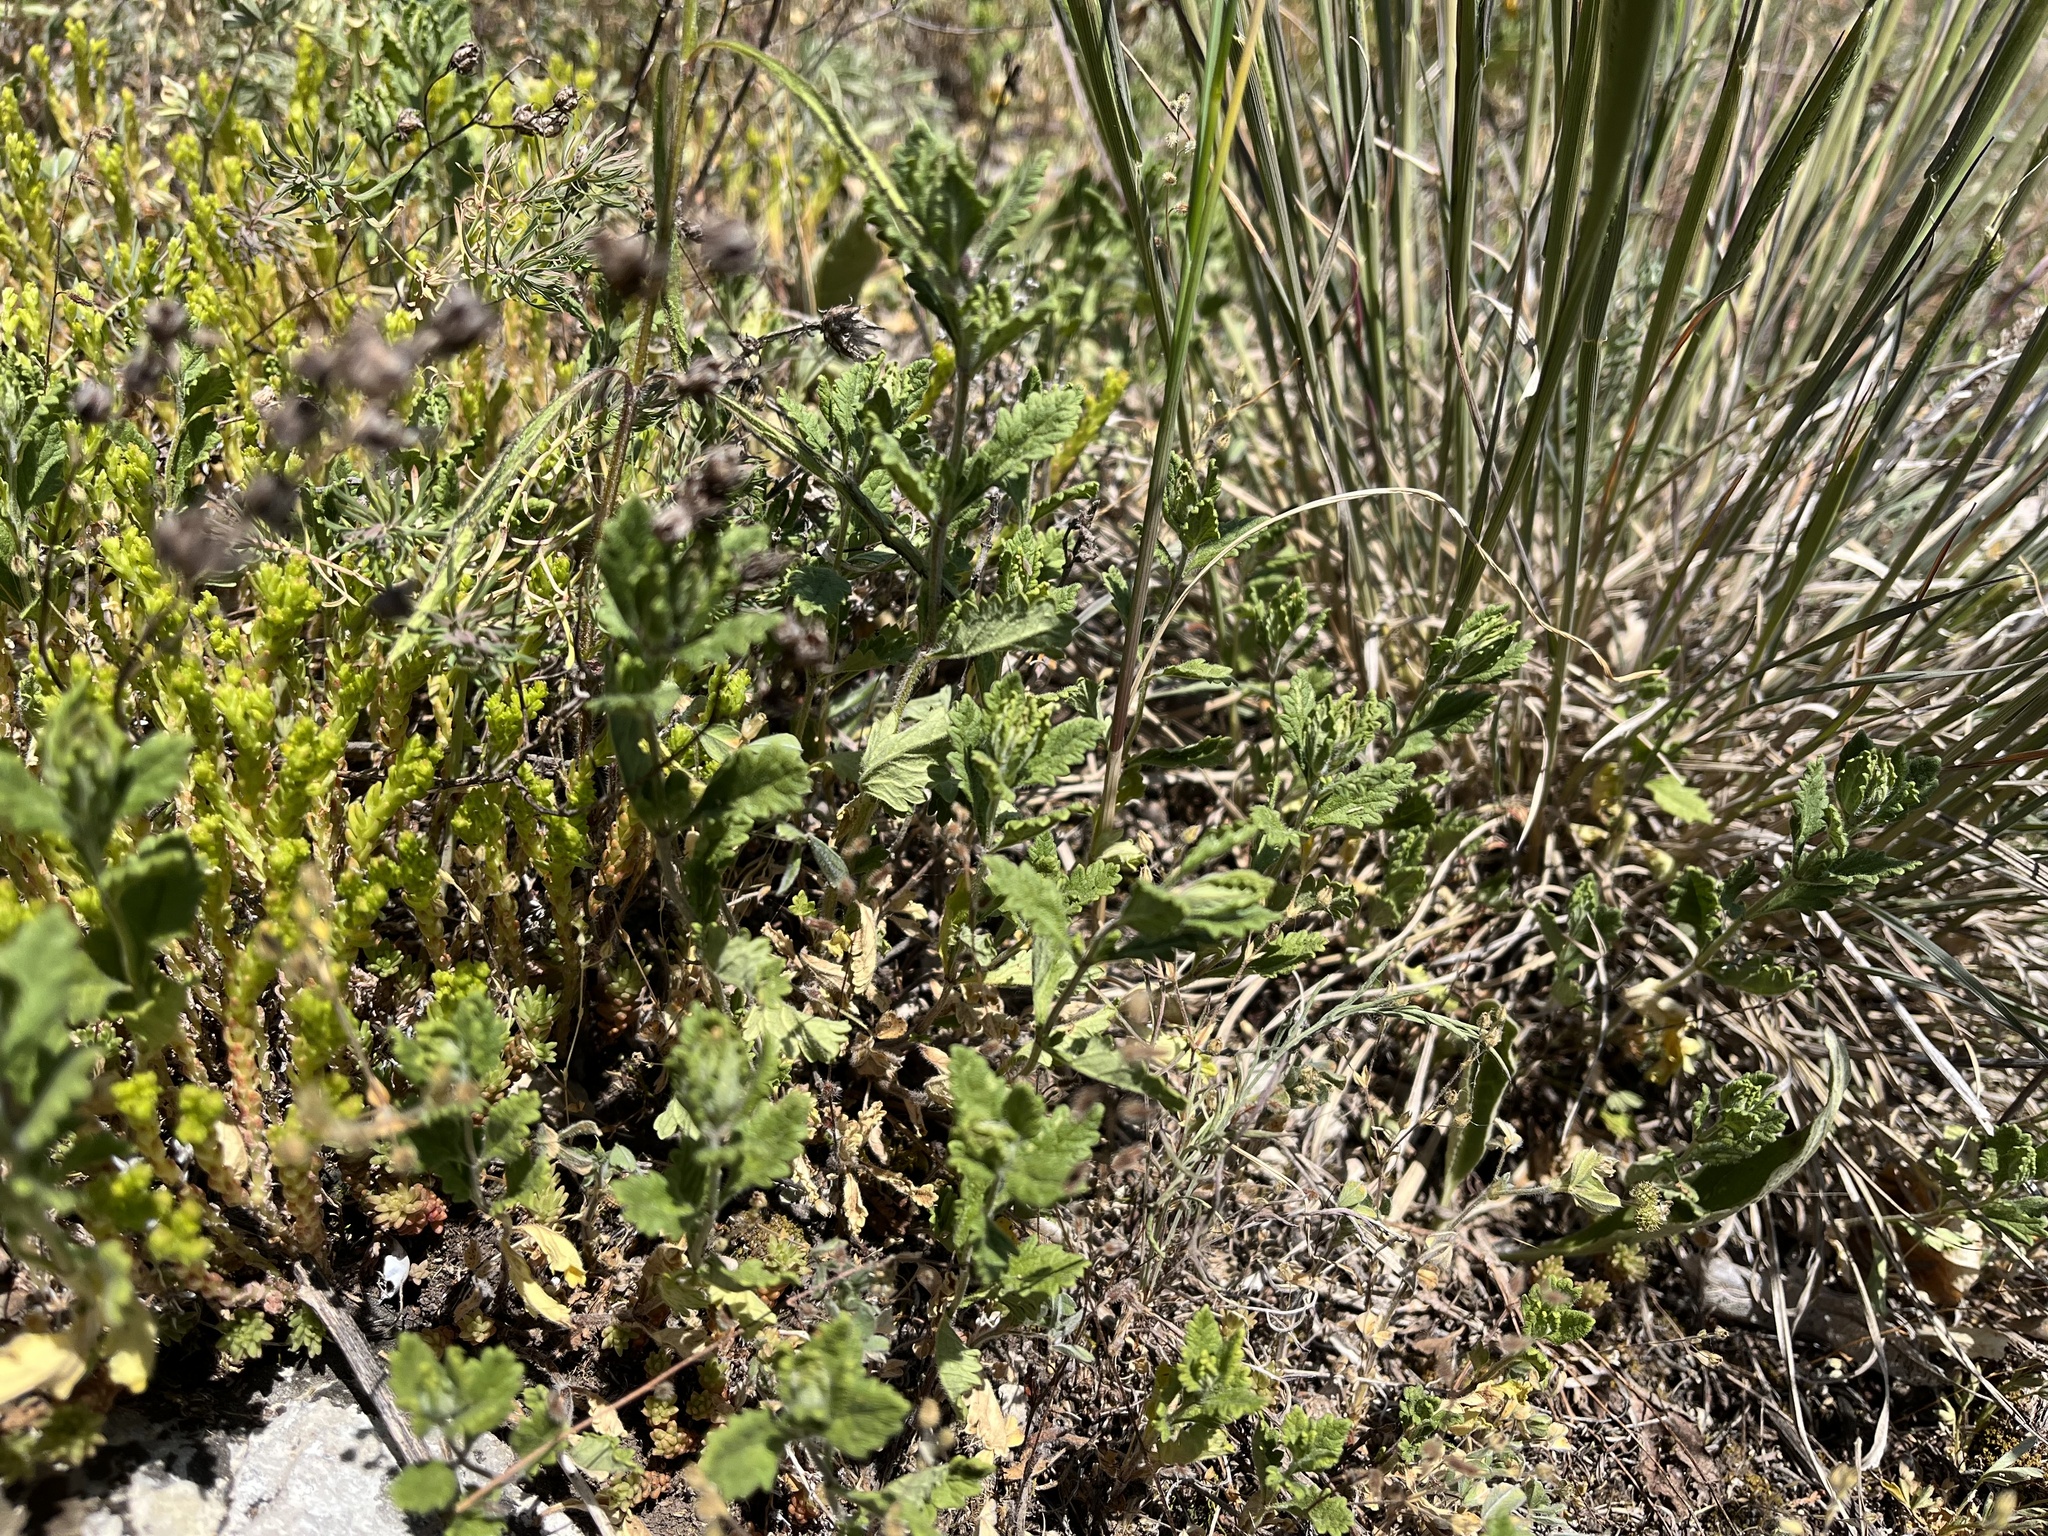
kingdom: Plantae
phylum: Tracheophyta
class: Magnoliopsida
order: Lamiales
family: Lamiaceae
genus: Teucrium
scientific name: Teucrium chamaedrys
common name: Wall germander
